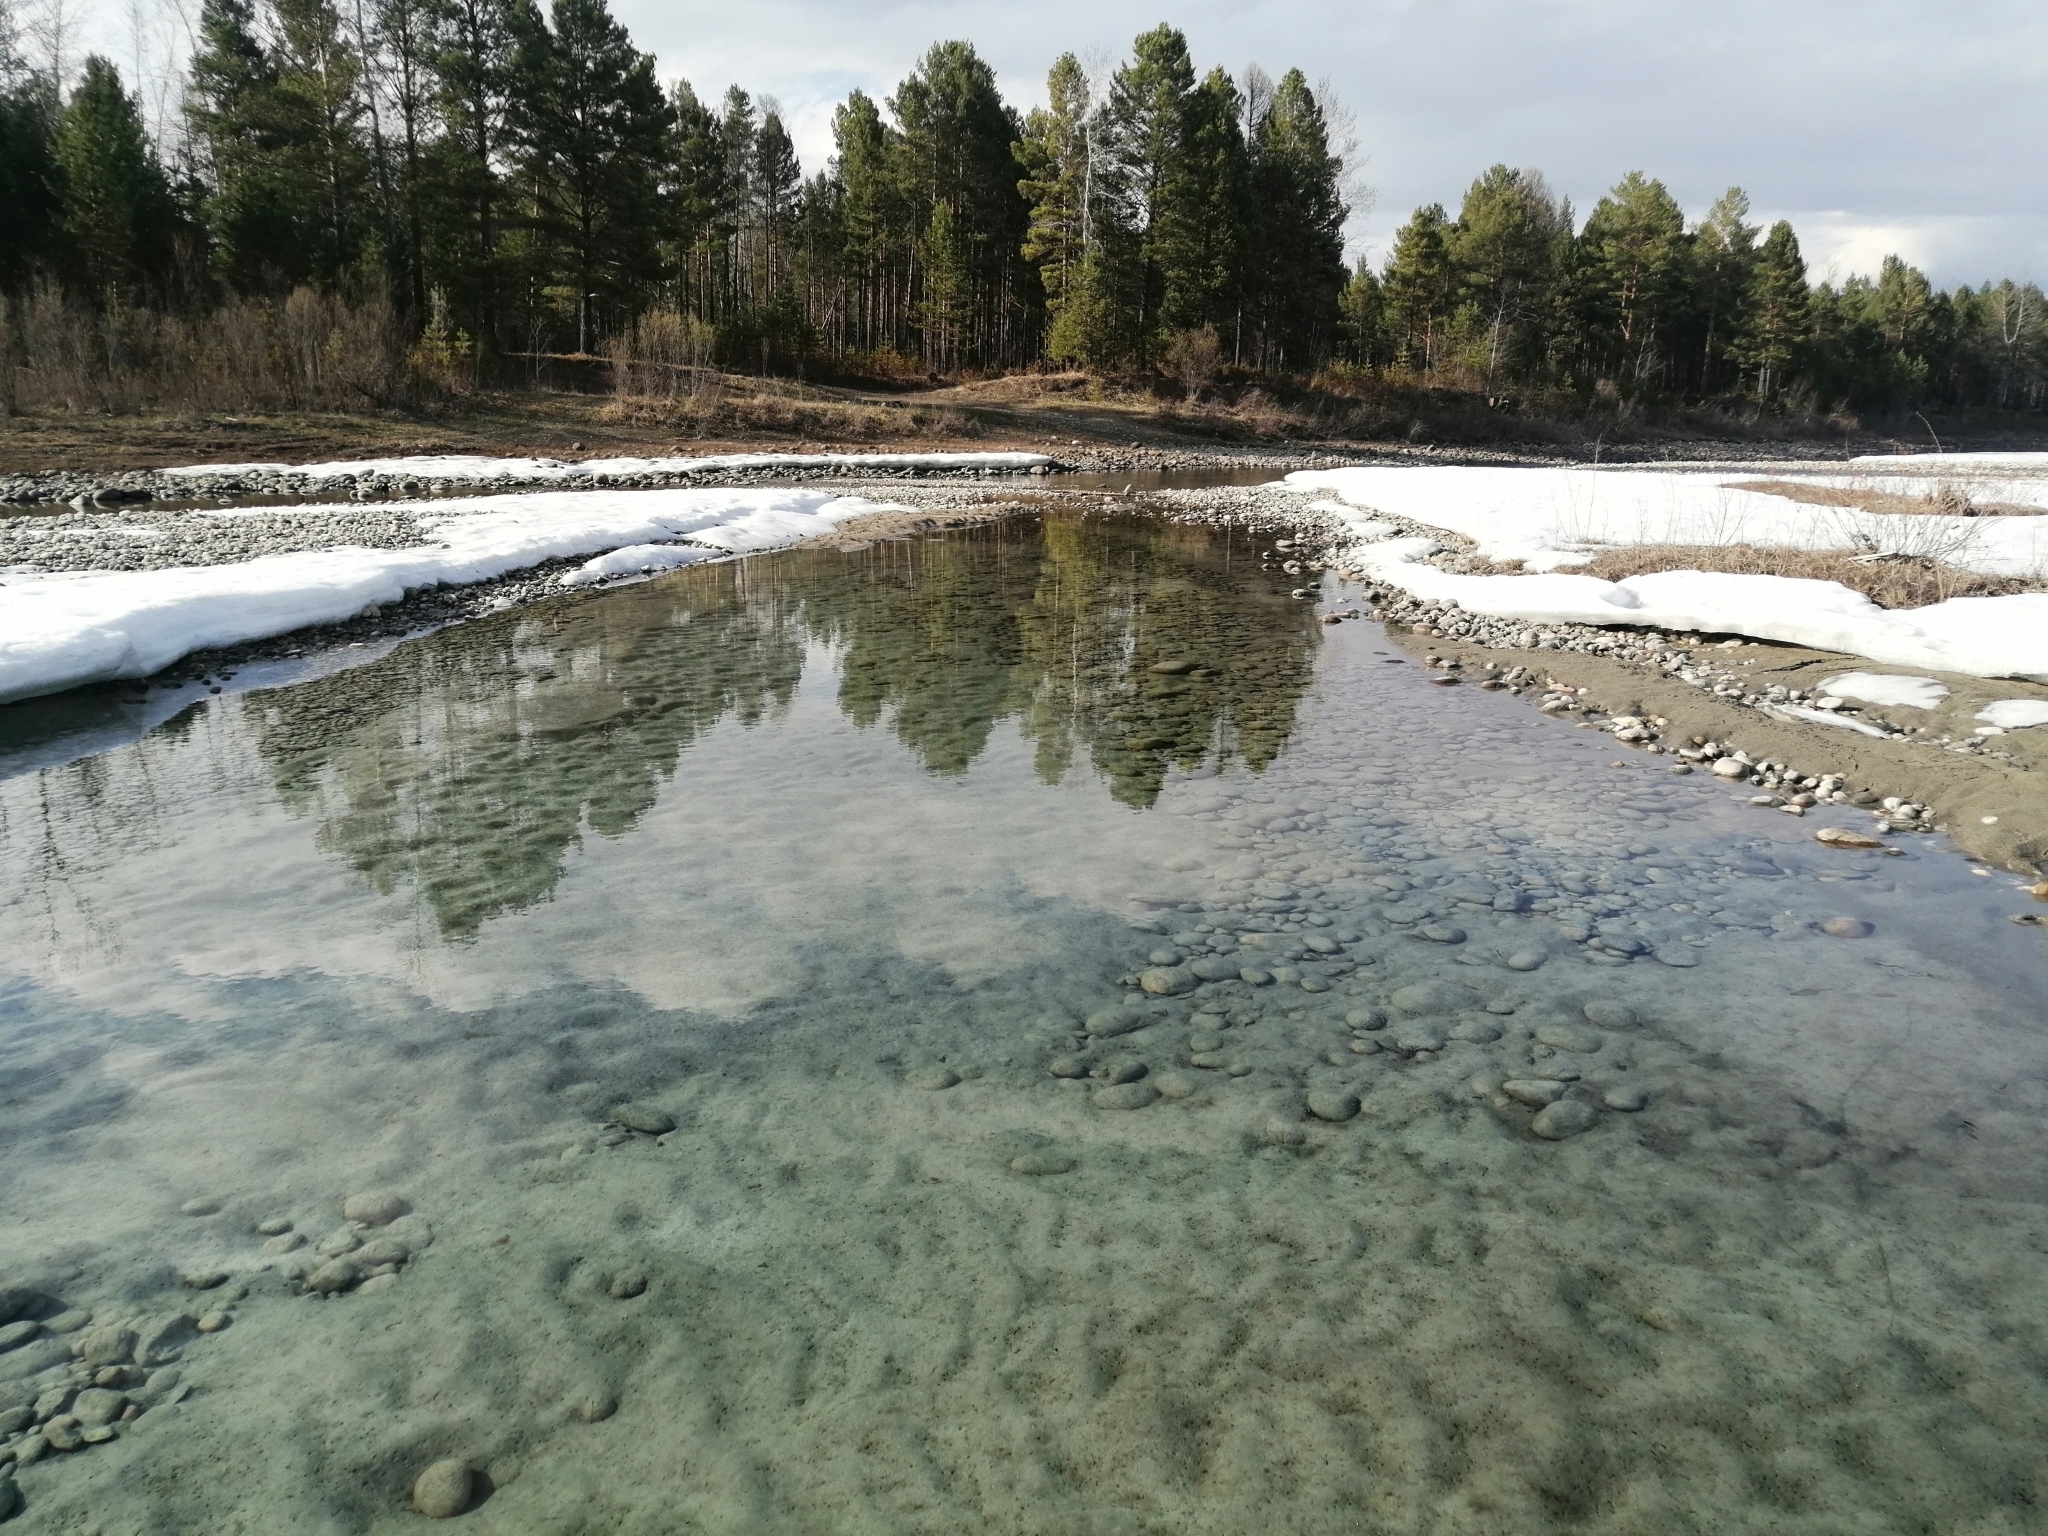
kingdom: Plantae
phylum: Tracheophyta
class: Pinopsida
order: Pinales
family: Pinaceae
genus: Pinus
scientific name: Pinus sylvestris
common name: Scots pine
